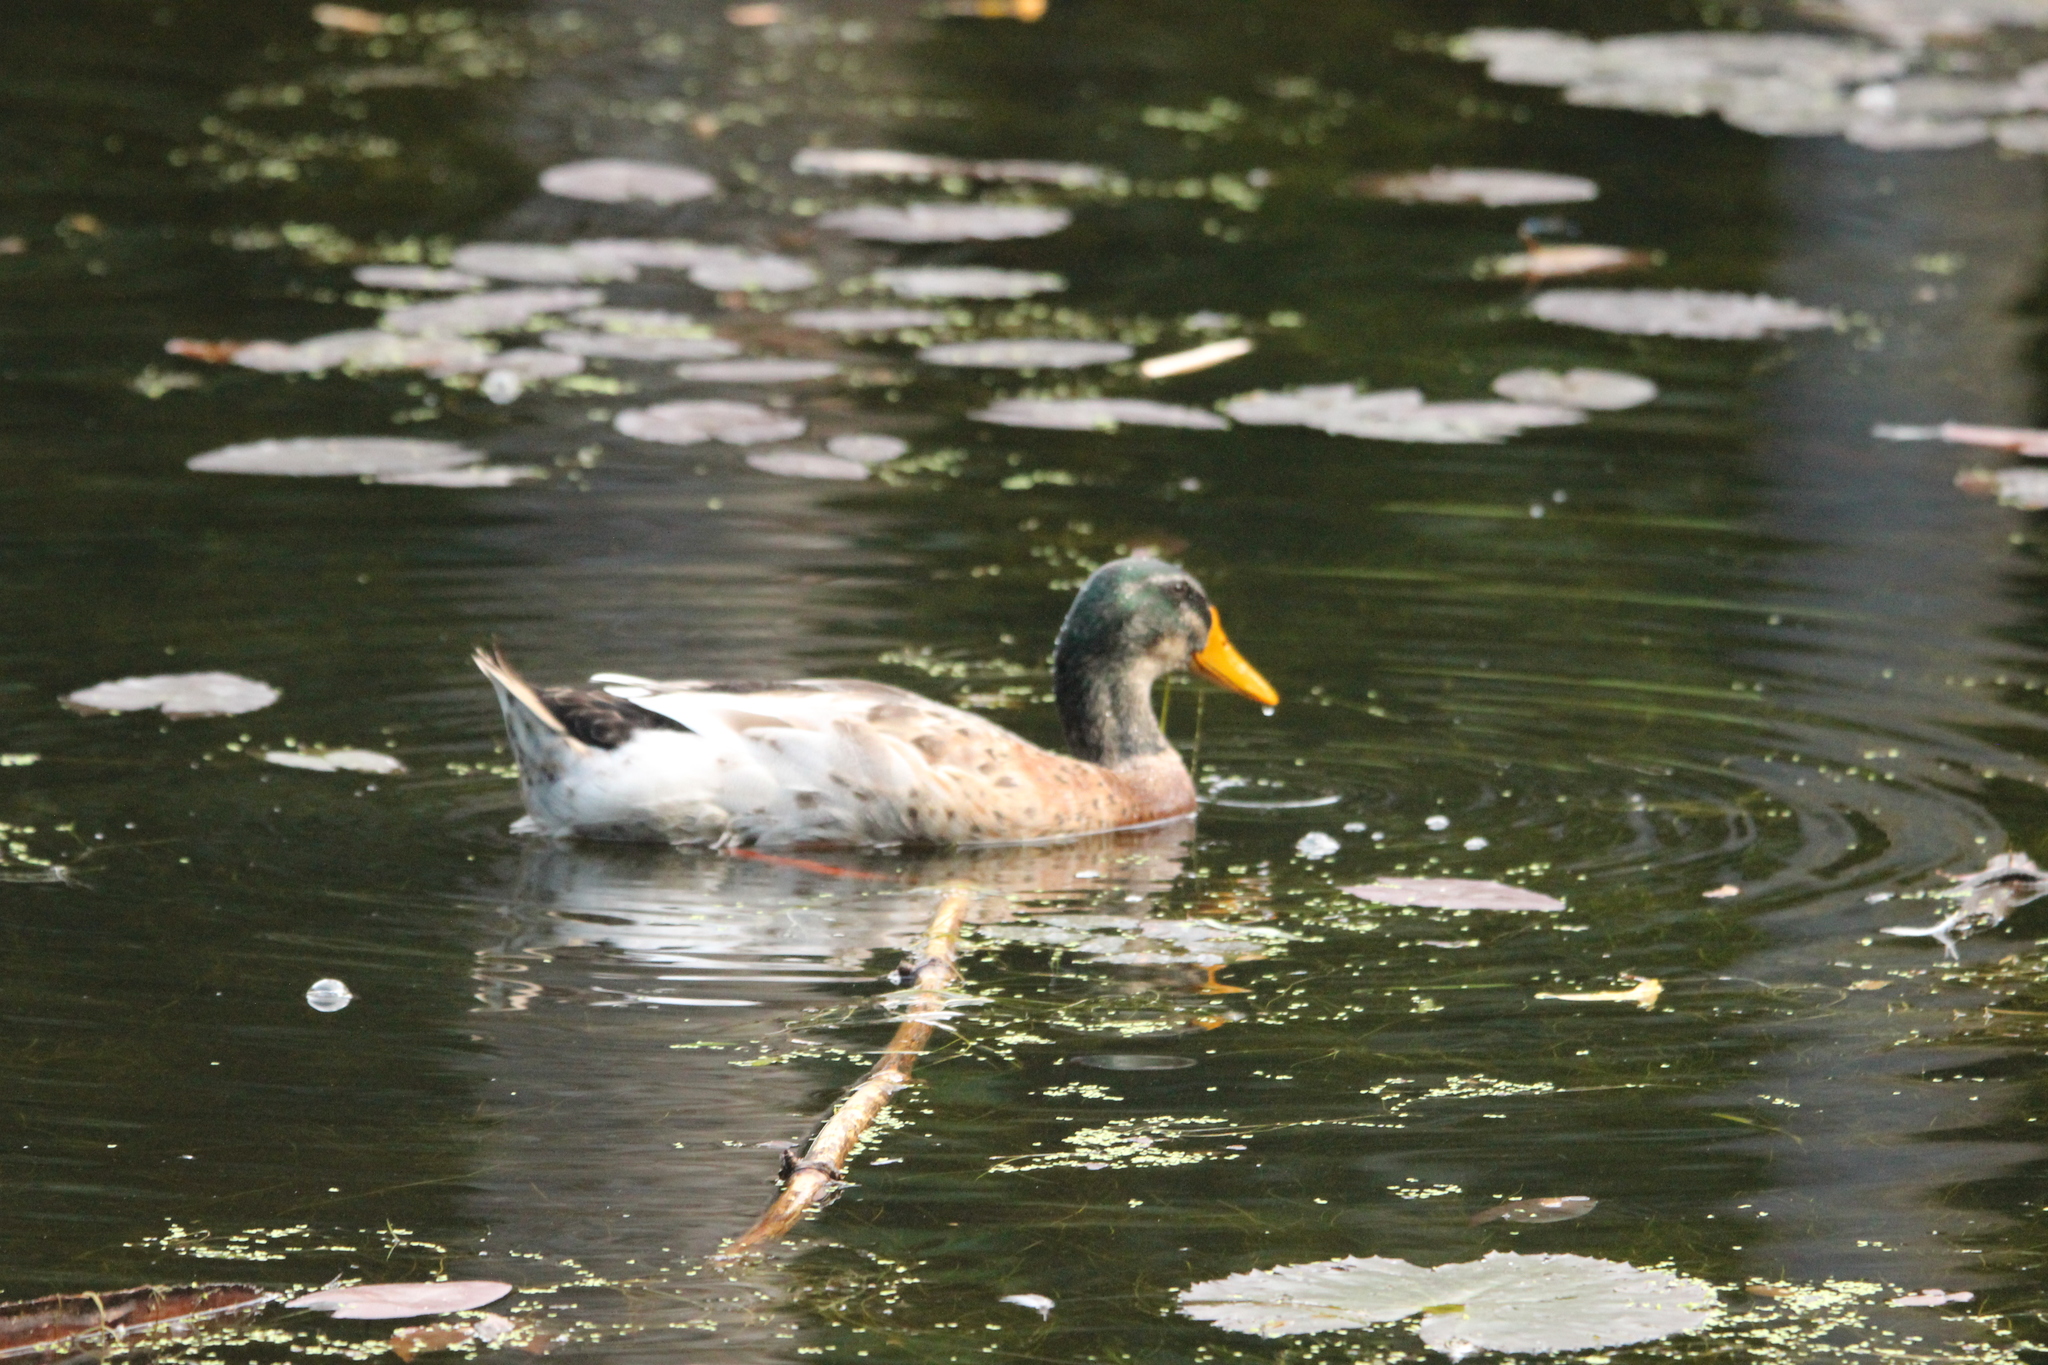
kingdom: Animalia
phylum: Chordata
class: Aves
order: Anseriformes
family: Anatidae
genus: Anas
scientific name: Anas platyrhynchos
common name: Mallard
